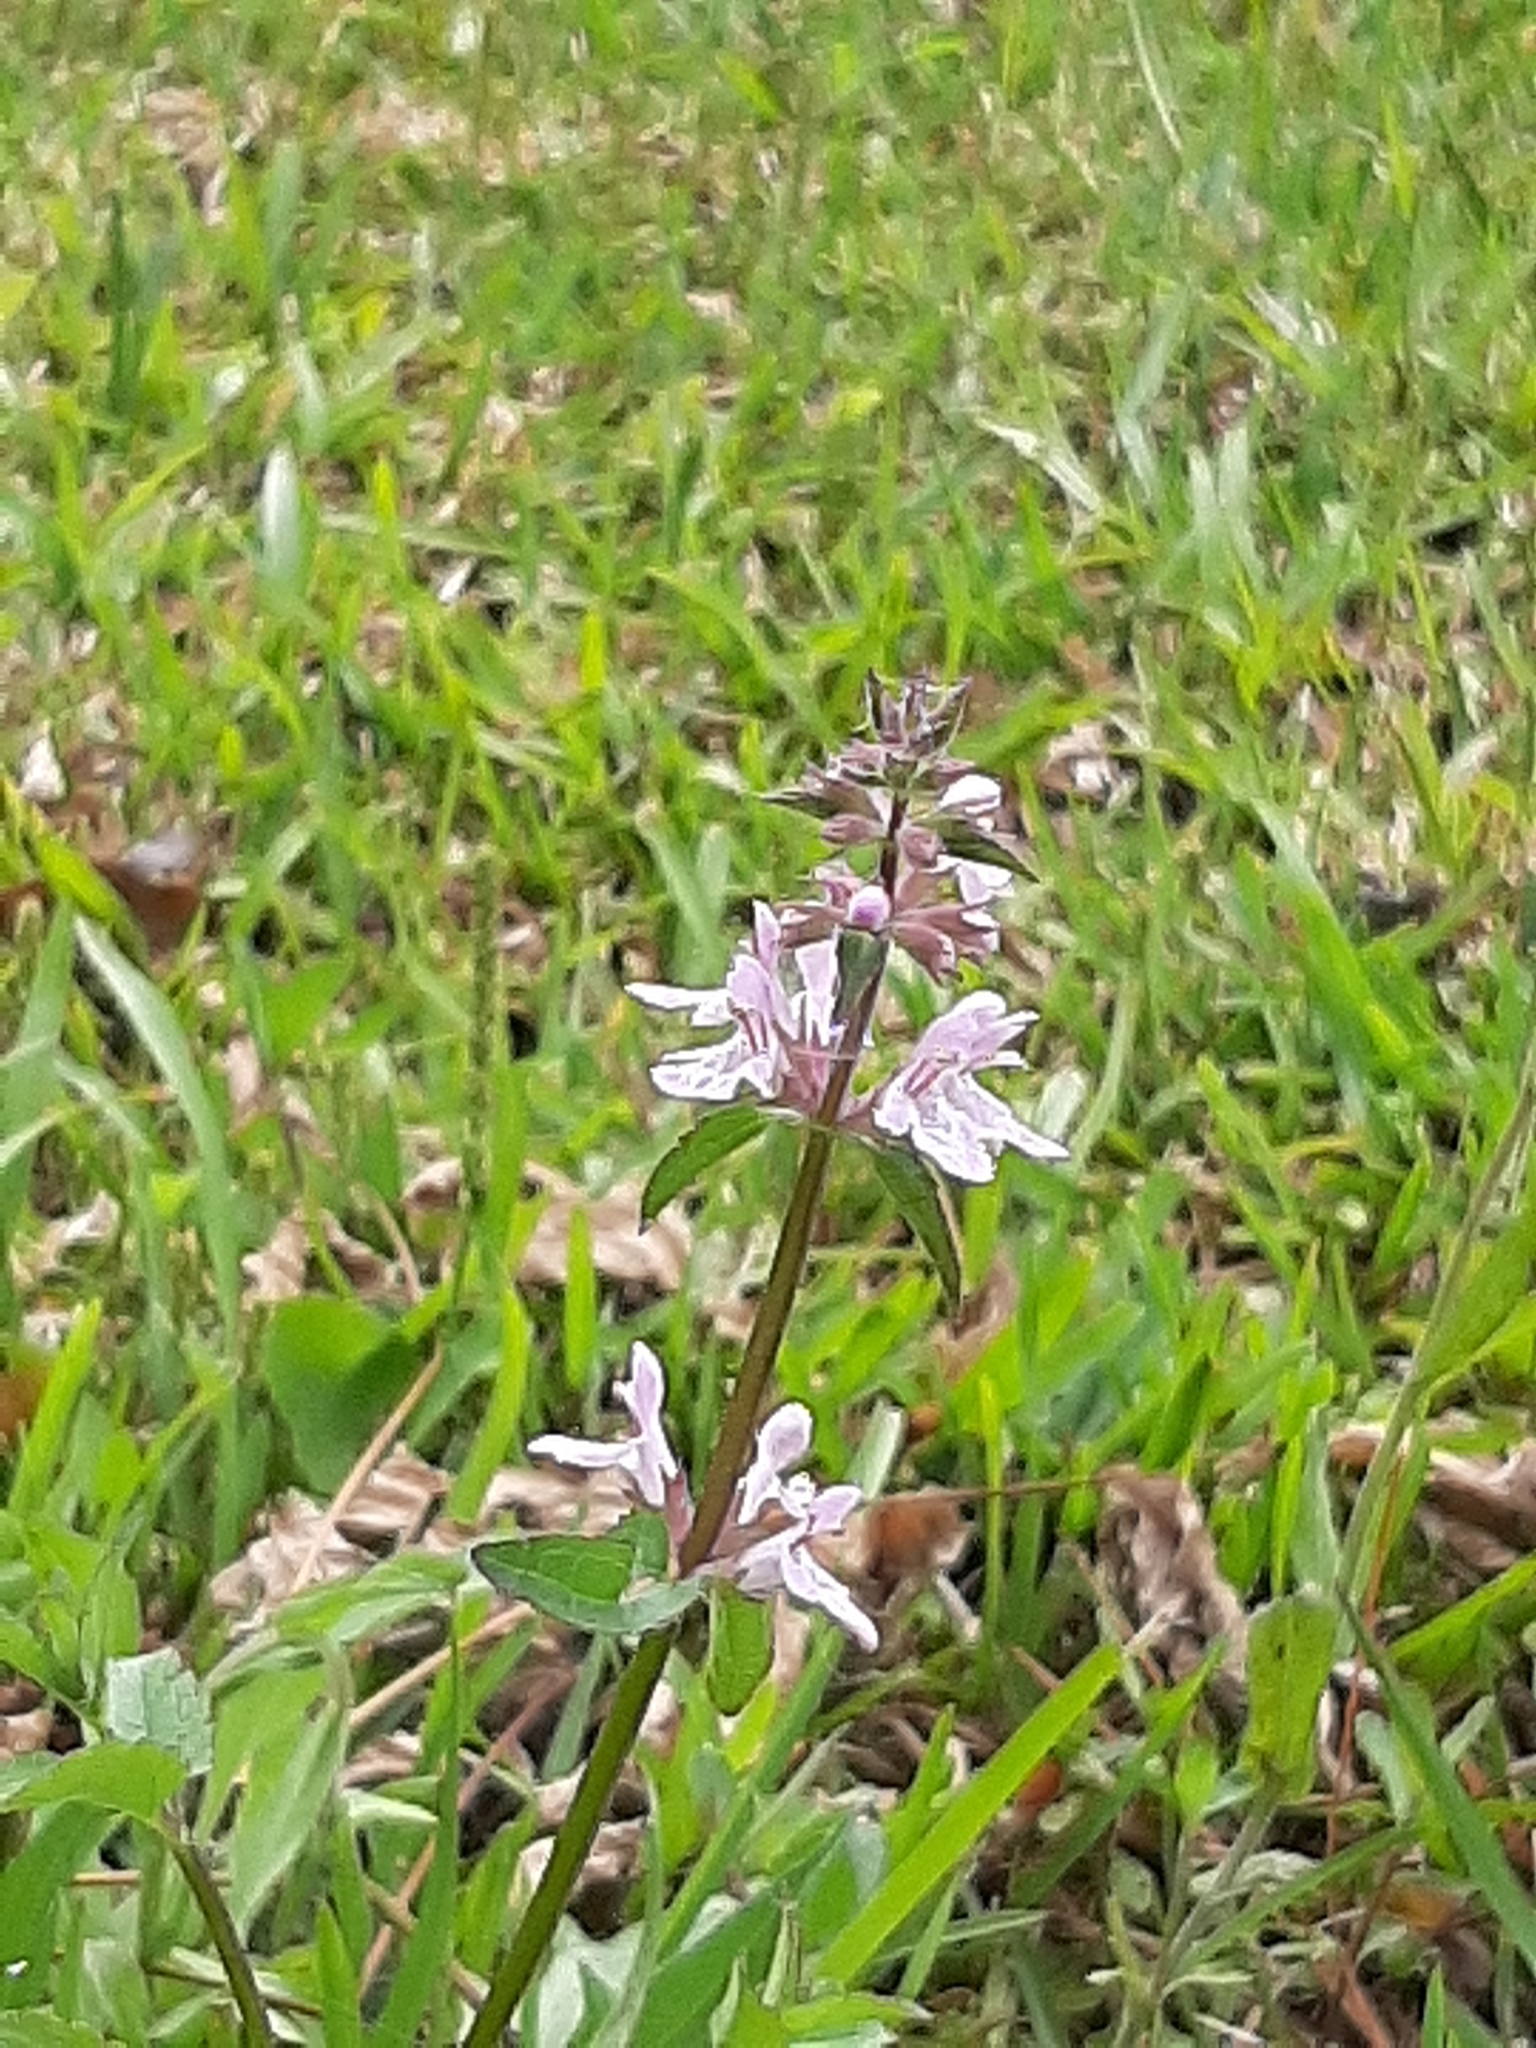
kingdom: Plantae
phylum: Tracheophyta
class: Magnoliopsida
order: Lamiales
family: Lamiaceae
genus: Stachys
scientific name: Stachys floridana
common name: Florida betony
